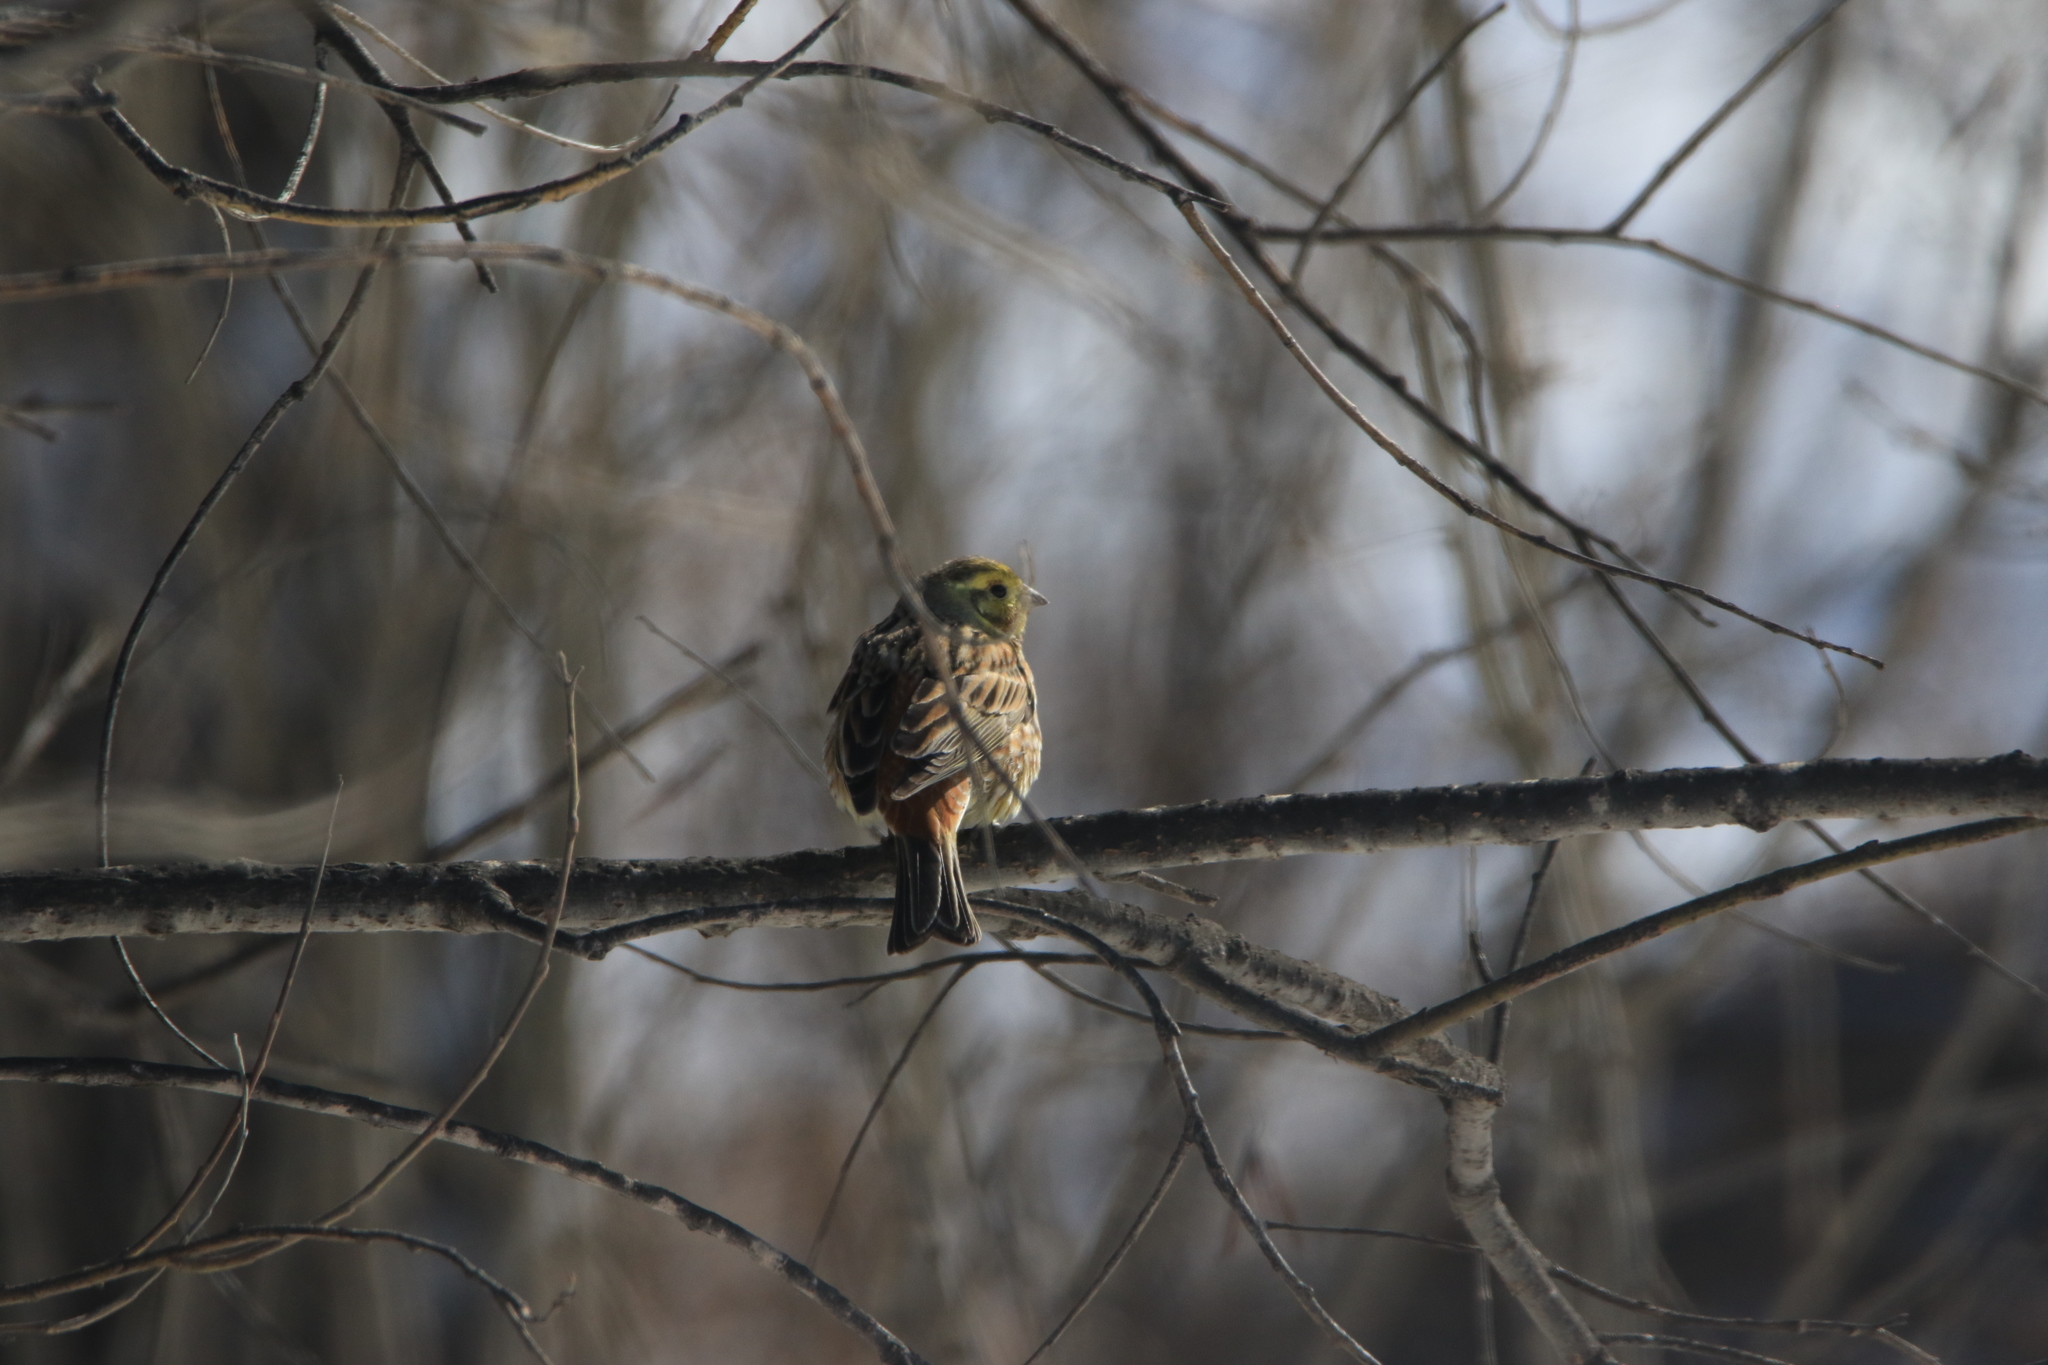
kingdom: Animalia
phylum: Chordata
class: Aves
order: Passeriformes
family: Emberizidae
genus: Emberiza
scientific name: Emberiza citrinella
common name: Yellowhammer
